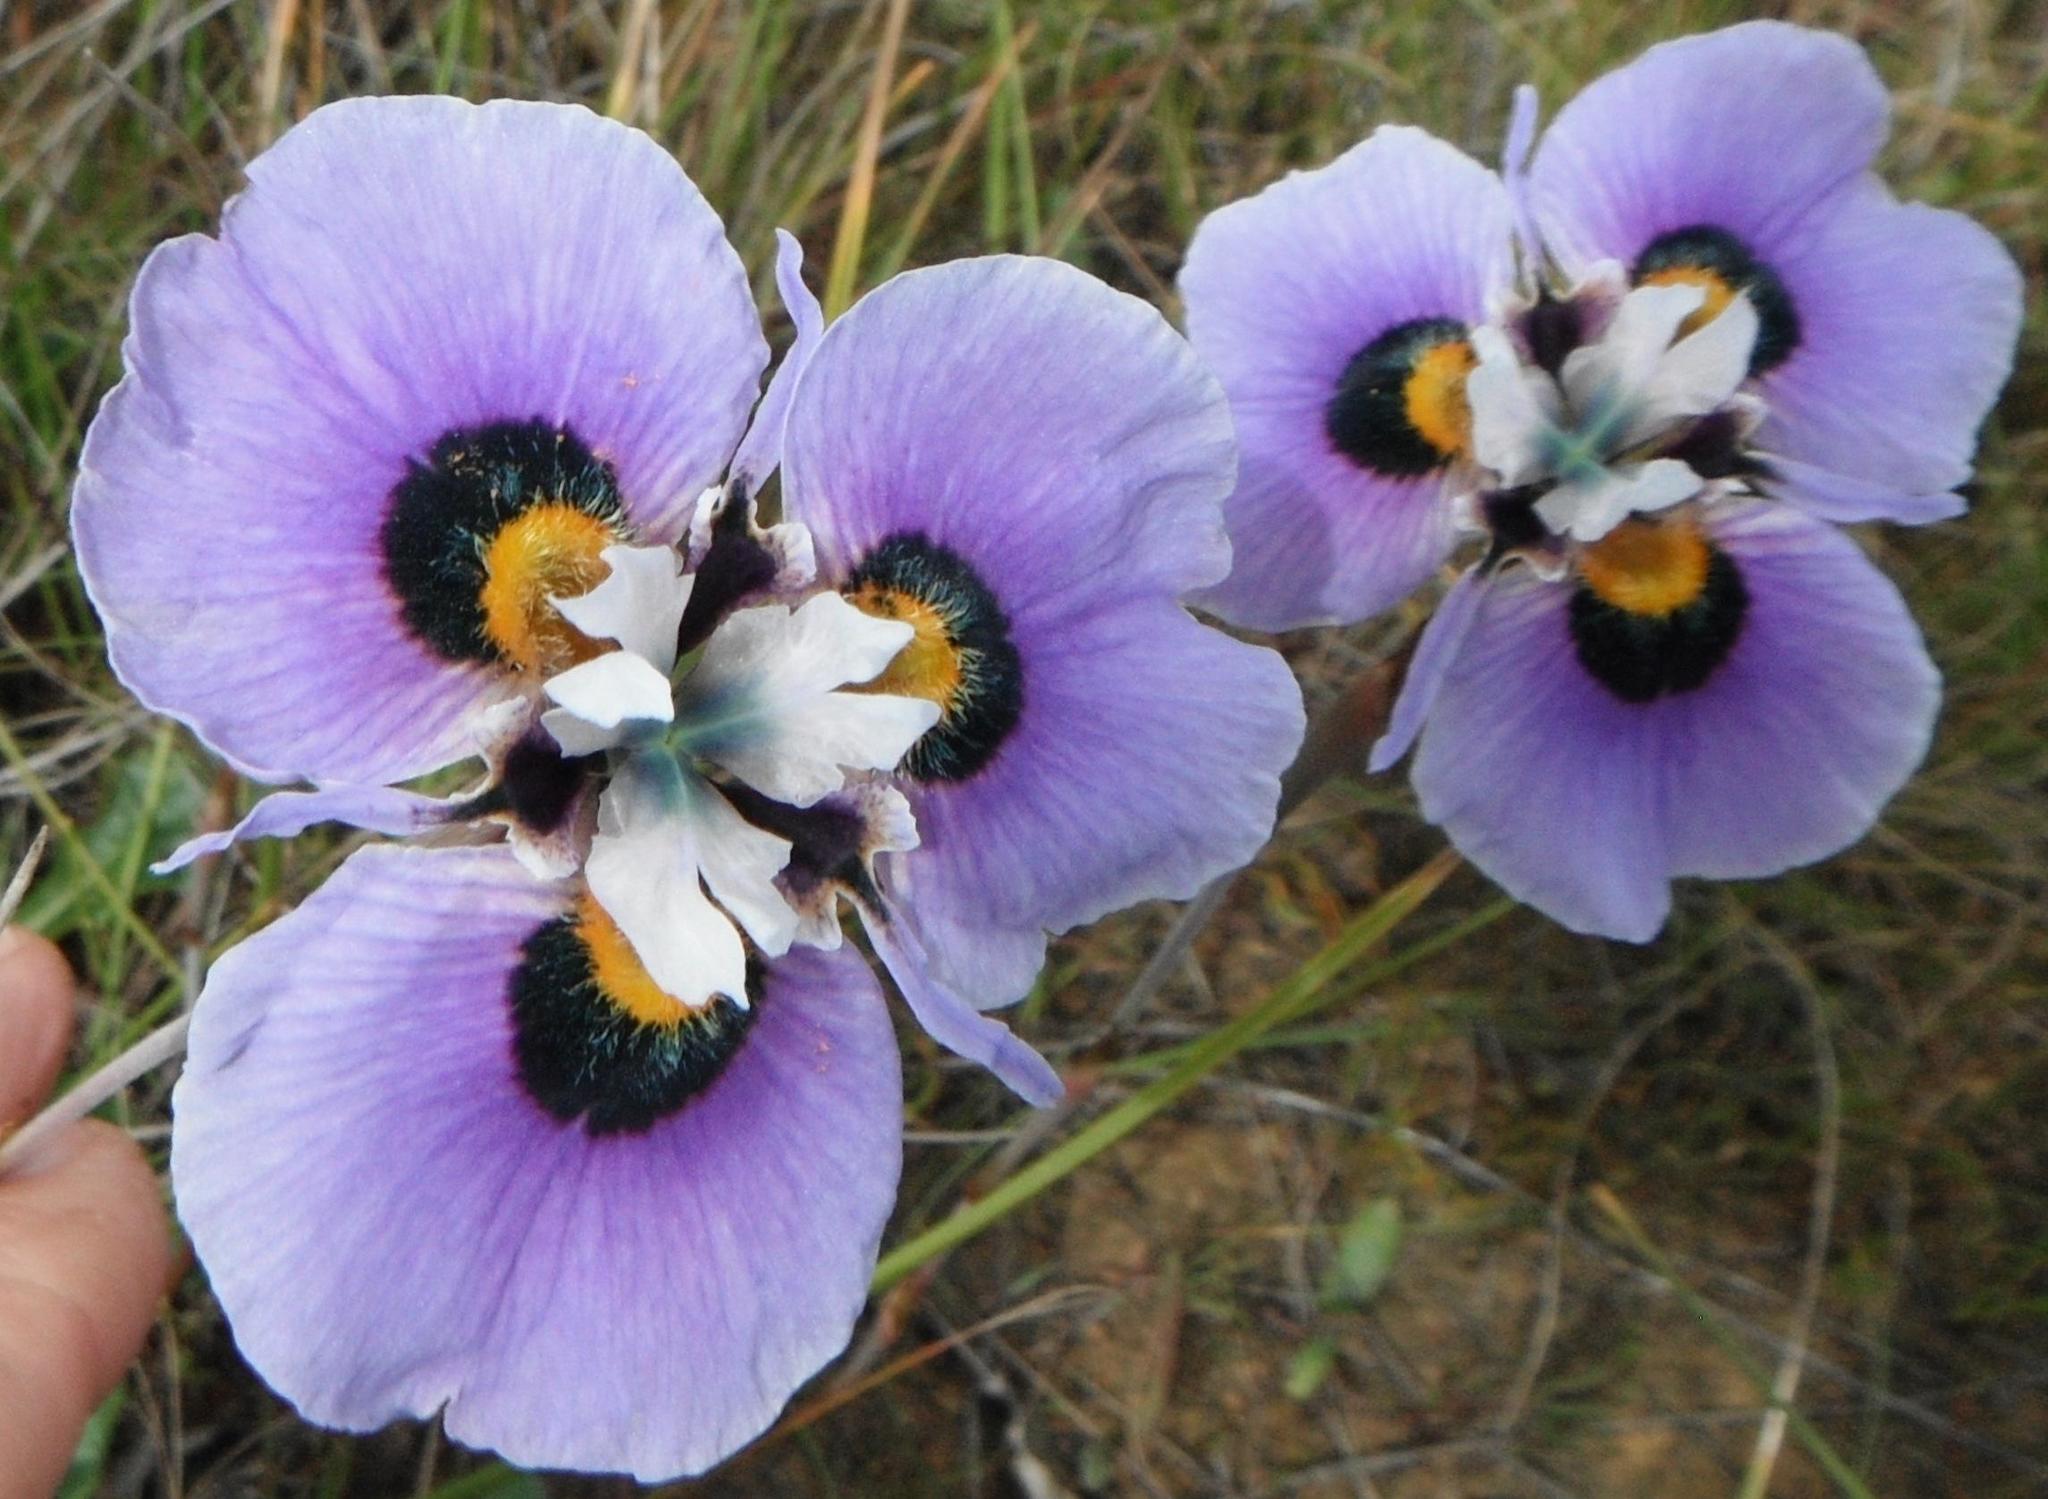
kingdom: Plantae
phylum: Tracheophyta
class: Liliopsida
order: Asparagales
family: Iridaceae
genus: Moraea
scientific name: Moraea villosa
